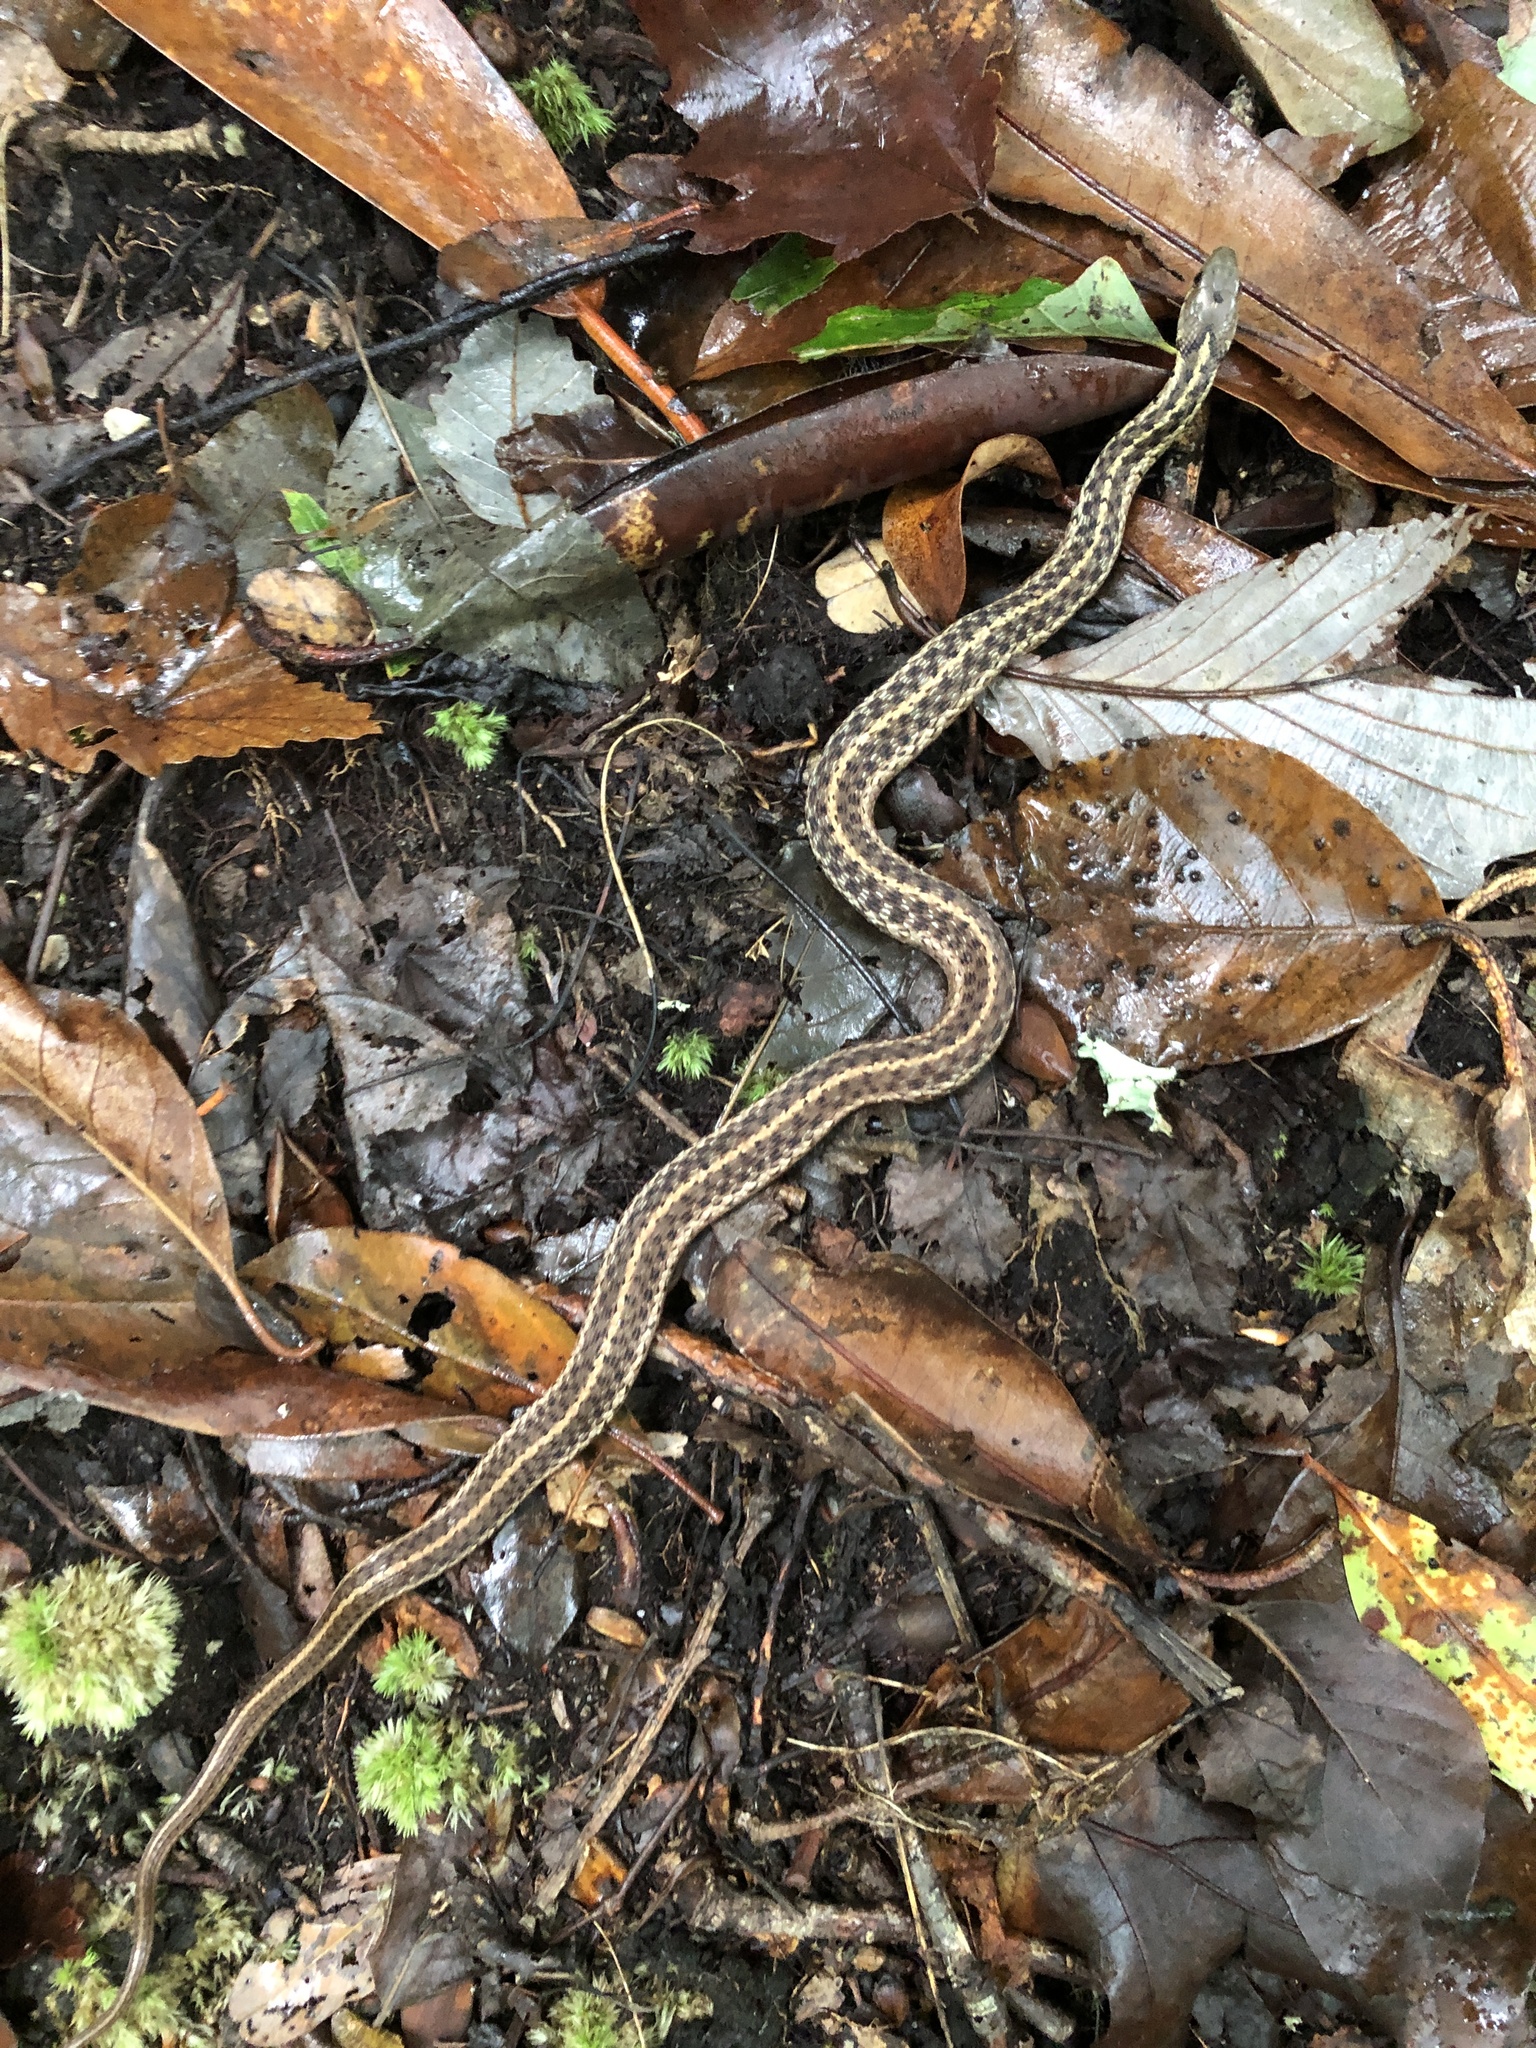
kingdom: Animalia
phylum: Chordata
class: Squamata
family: Colubridae
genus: Thamnophis
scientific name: Thamnophis sirtalis
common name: Common garter snake
